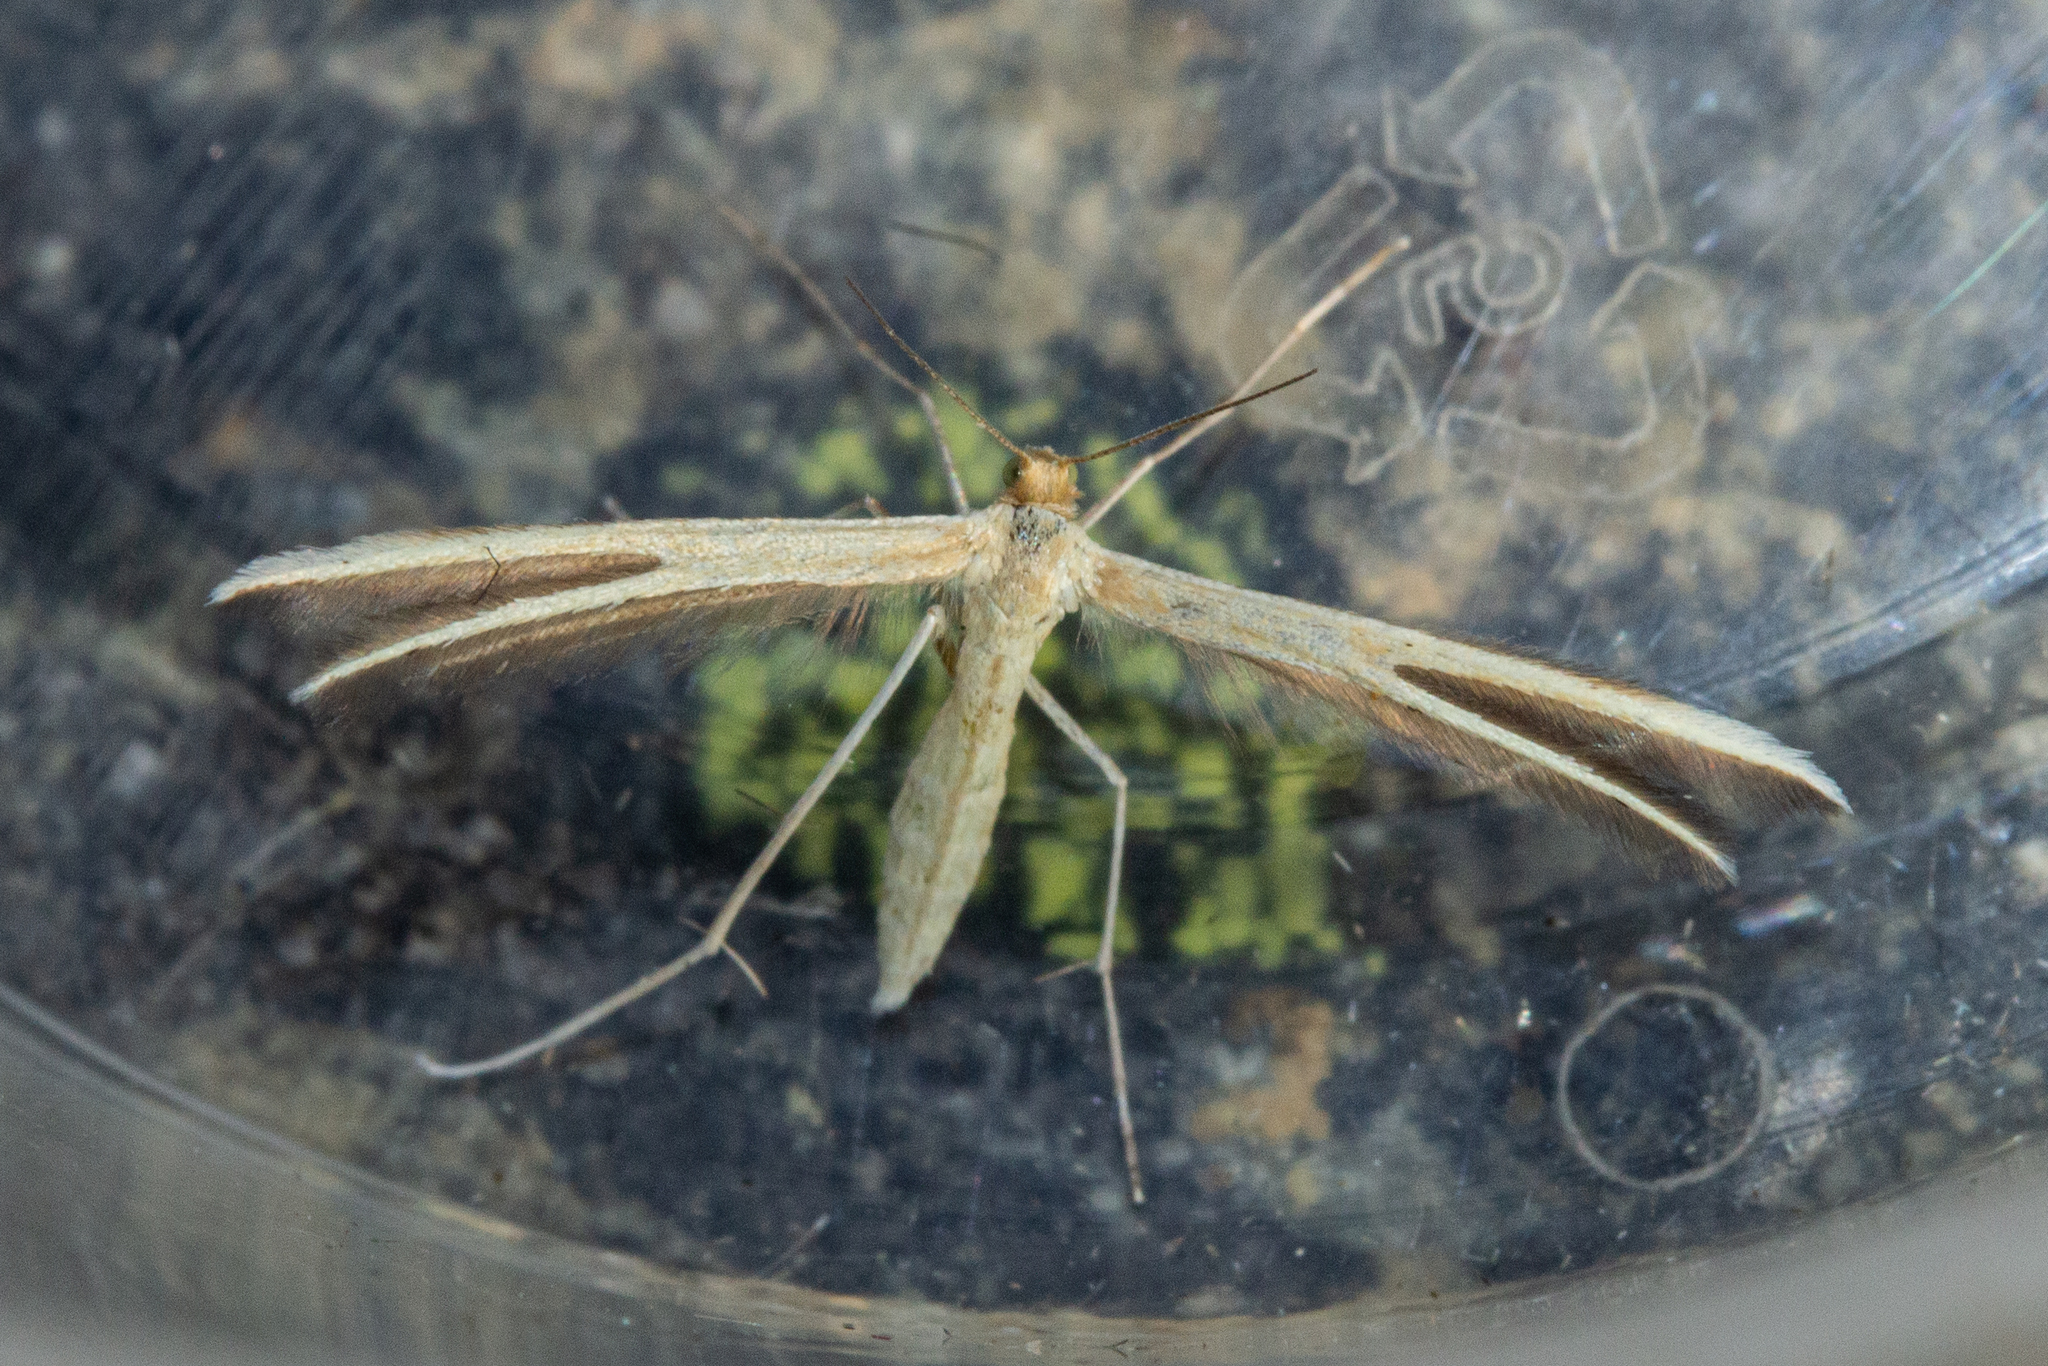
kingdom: Animalia
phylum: Arthropoda
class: Insecta
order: Lepidoptera
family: Pterophoridae
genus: Pterophorus
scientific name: Pterophorus innotatalis
